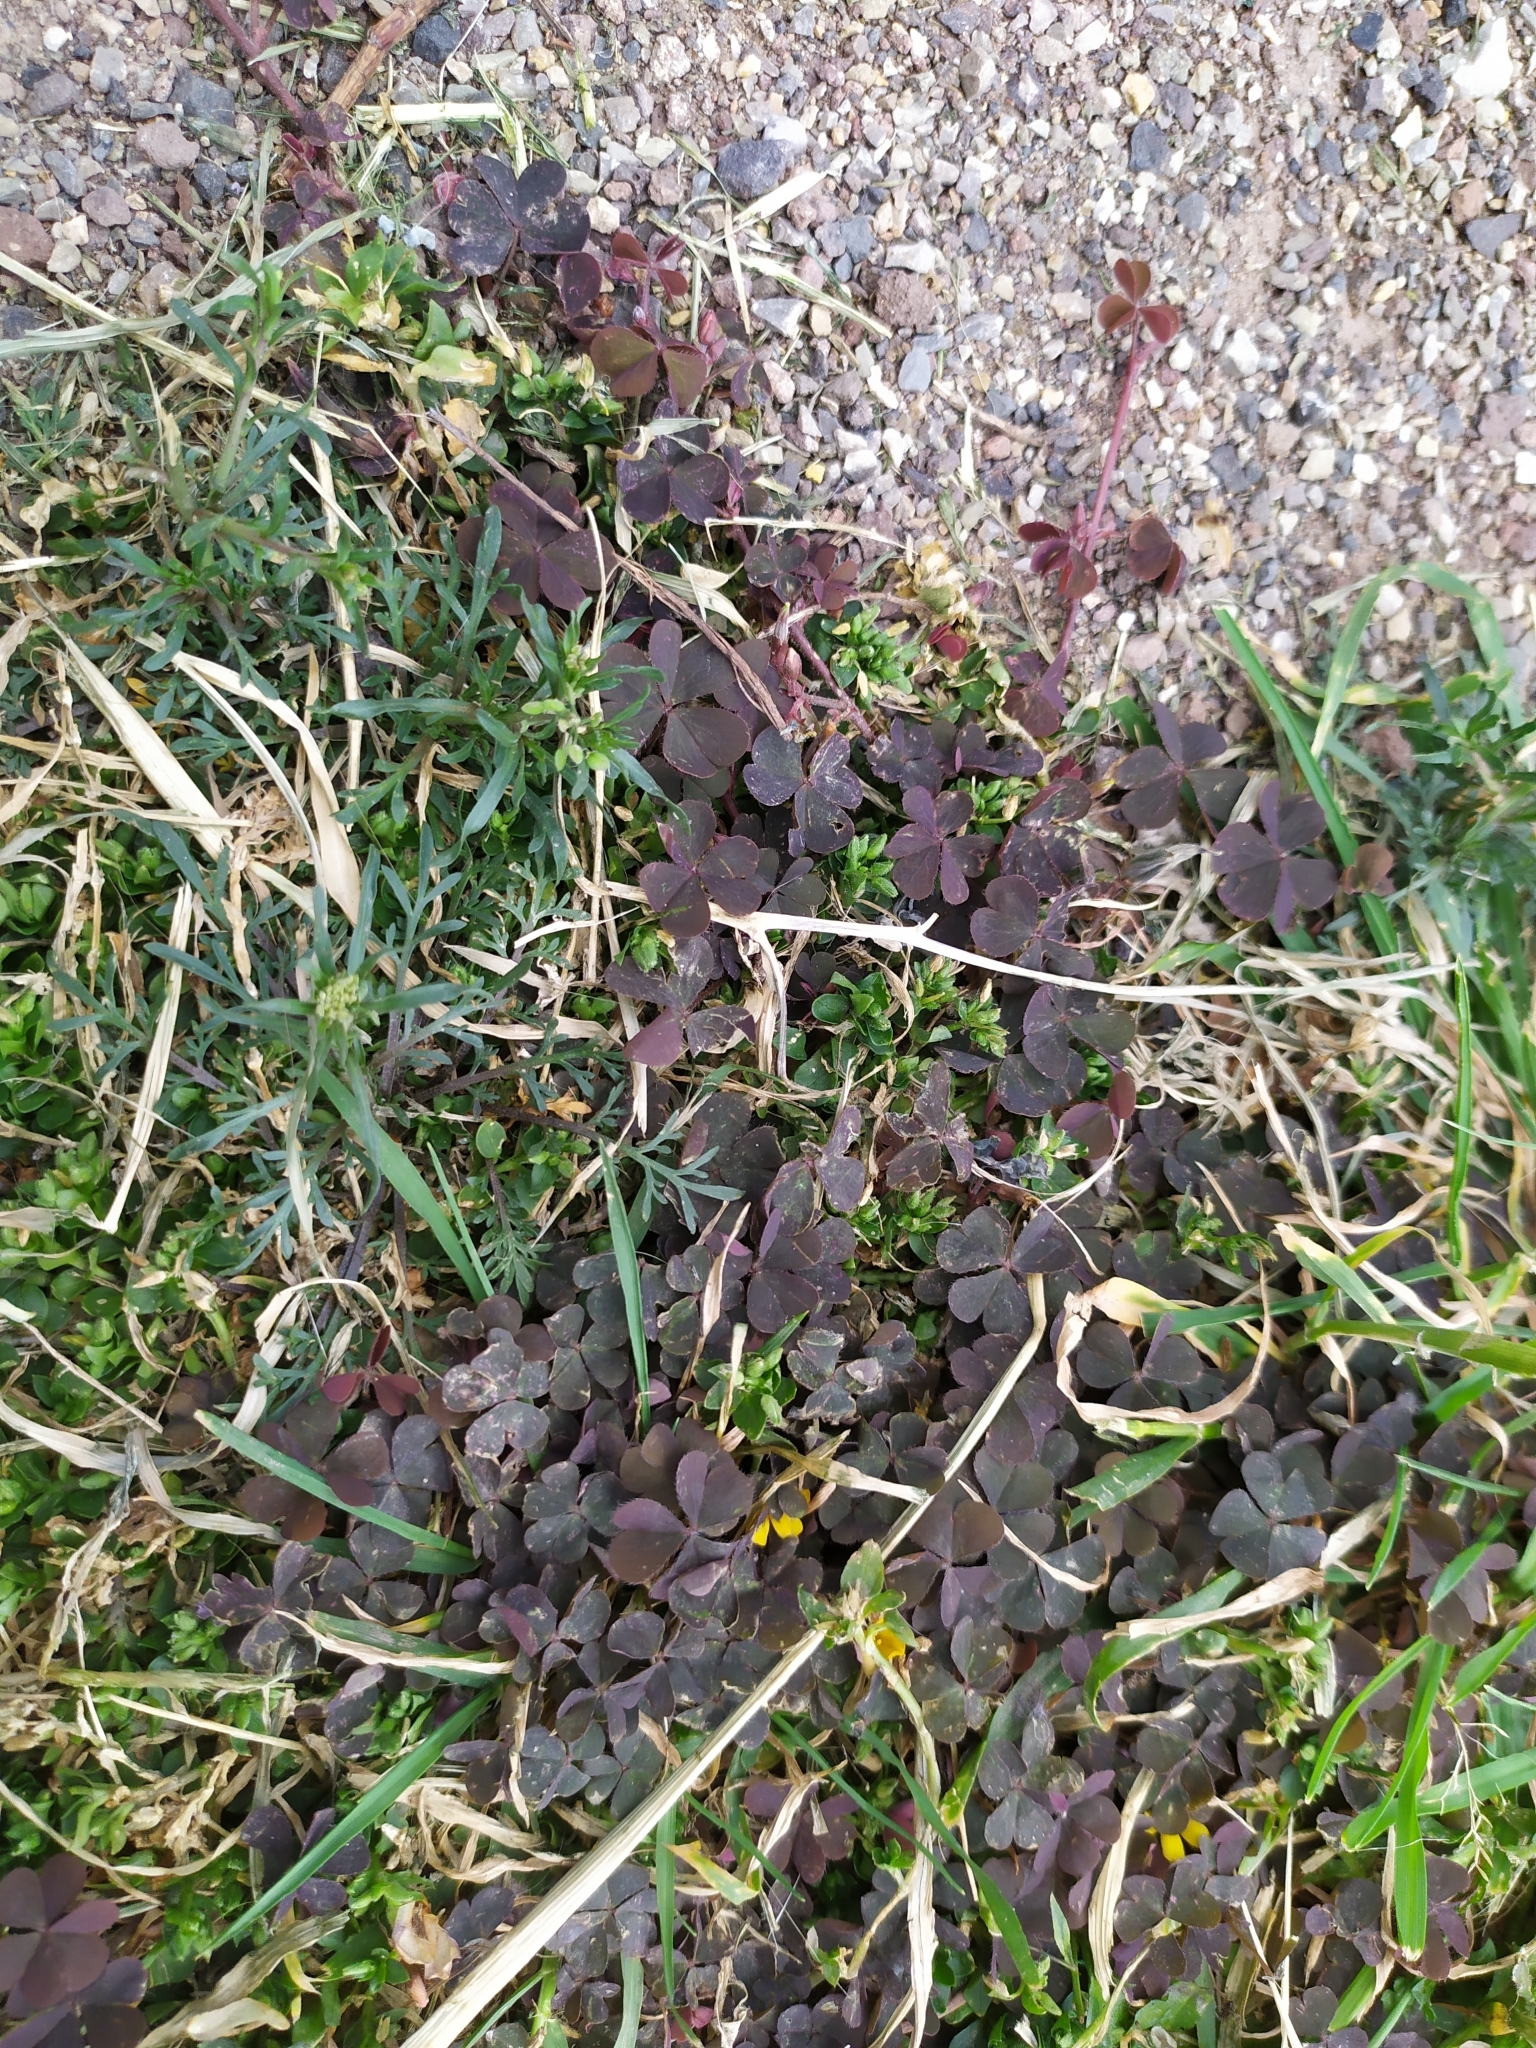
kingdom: Plantae
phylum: Tracheophyta
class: Magnoliopsida
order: Oxalidales
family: Oxalidaceae
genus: Oxalis
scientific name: Oxalis corniculata
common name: Procumbent yellow-sorrel
